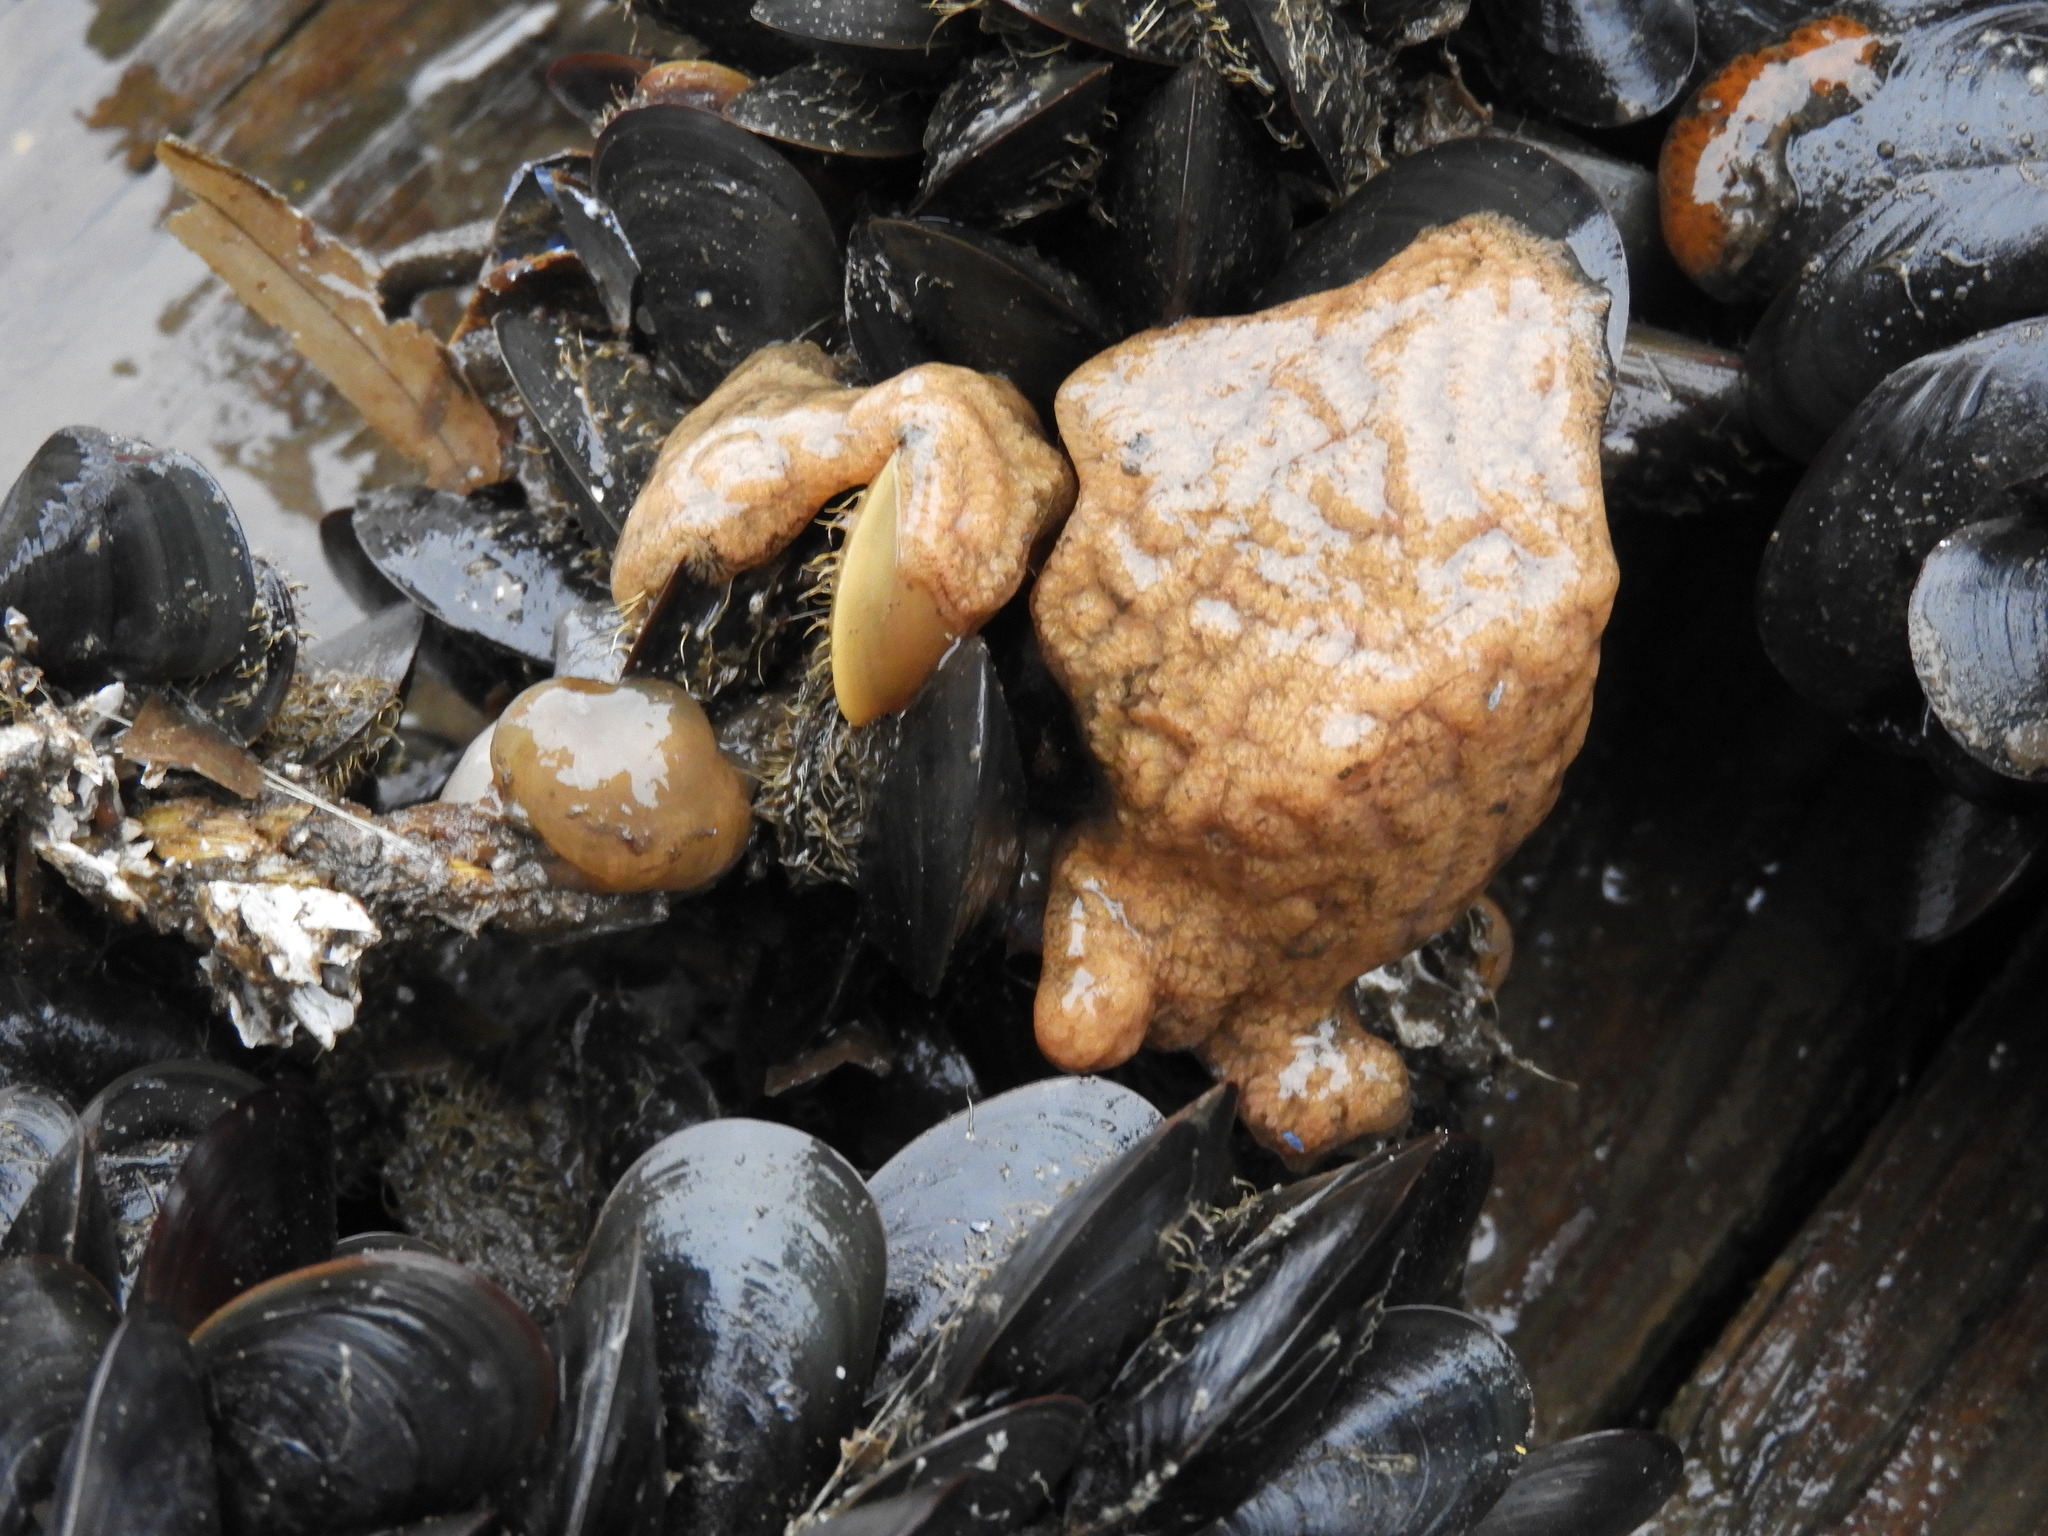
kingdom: Animalia
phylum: Chordata
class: Ascidiacea
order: Stolidobranchia
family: Styelidae
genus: Botrylloides
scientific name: Botrylloides violaceus
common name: Colonial sea squirt
